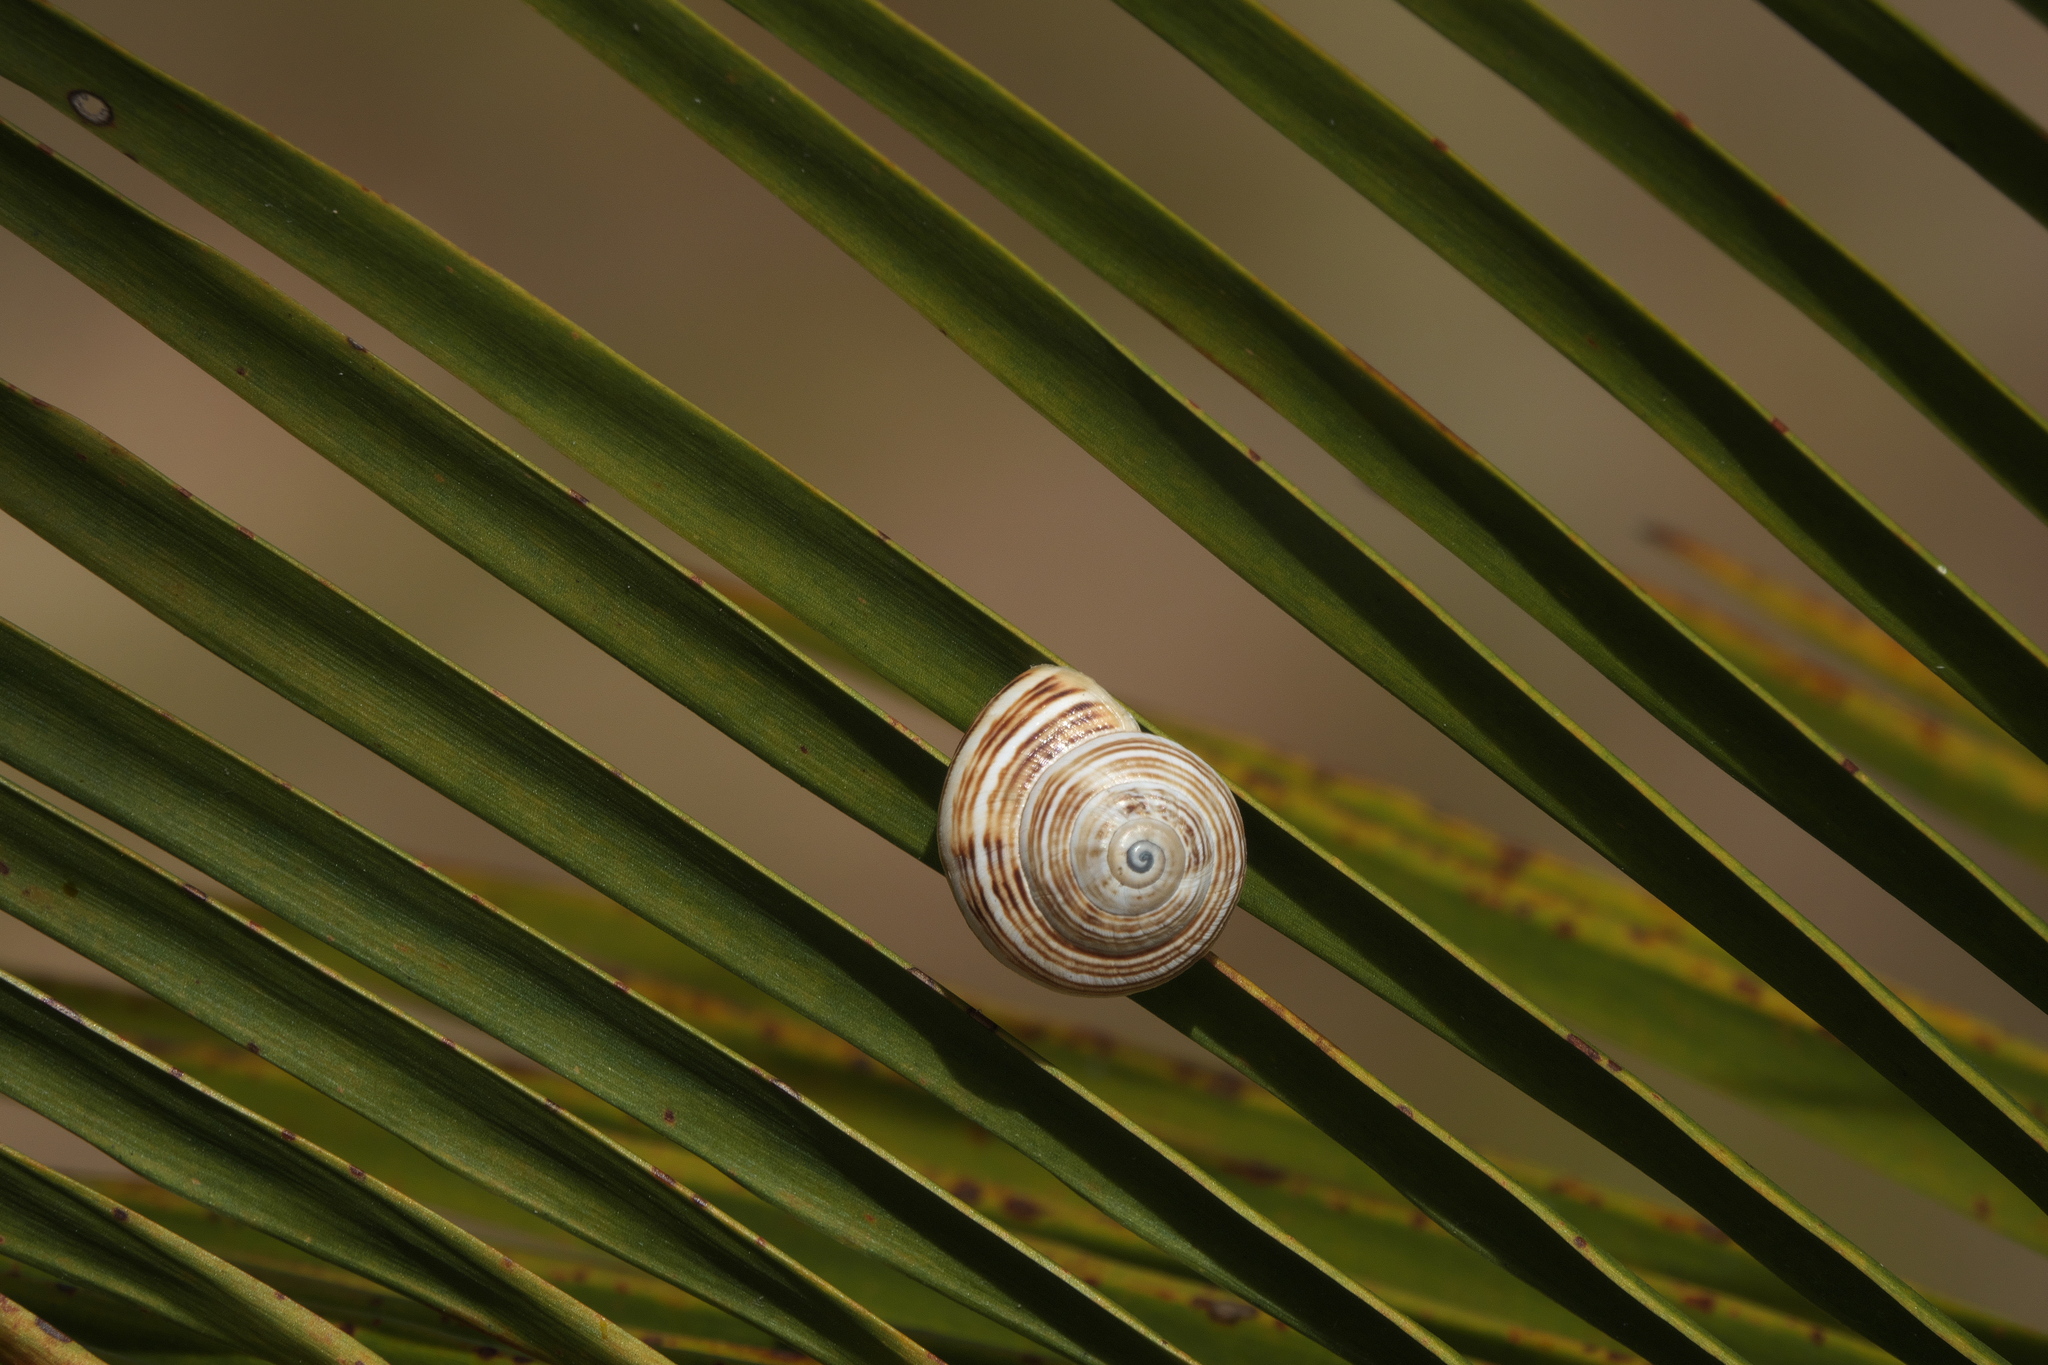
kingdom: Animalia
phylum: Mollusca
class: Gastropoda
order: Stylommatophora
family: Helicidae
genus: Theba
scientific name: Theba pisana
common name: White snail
